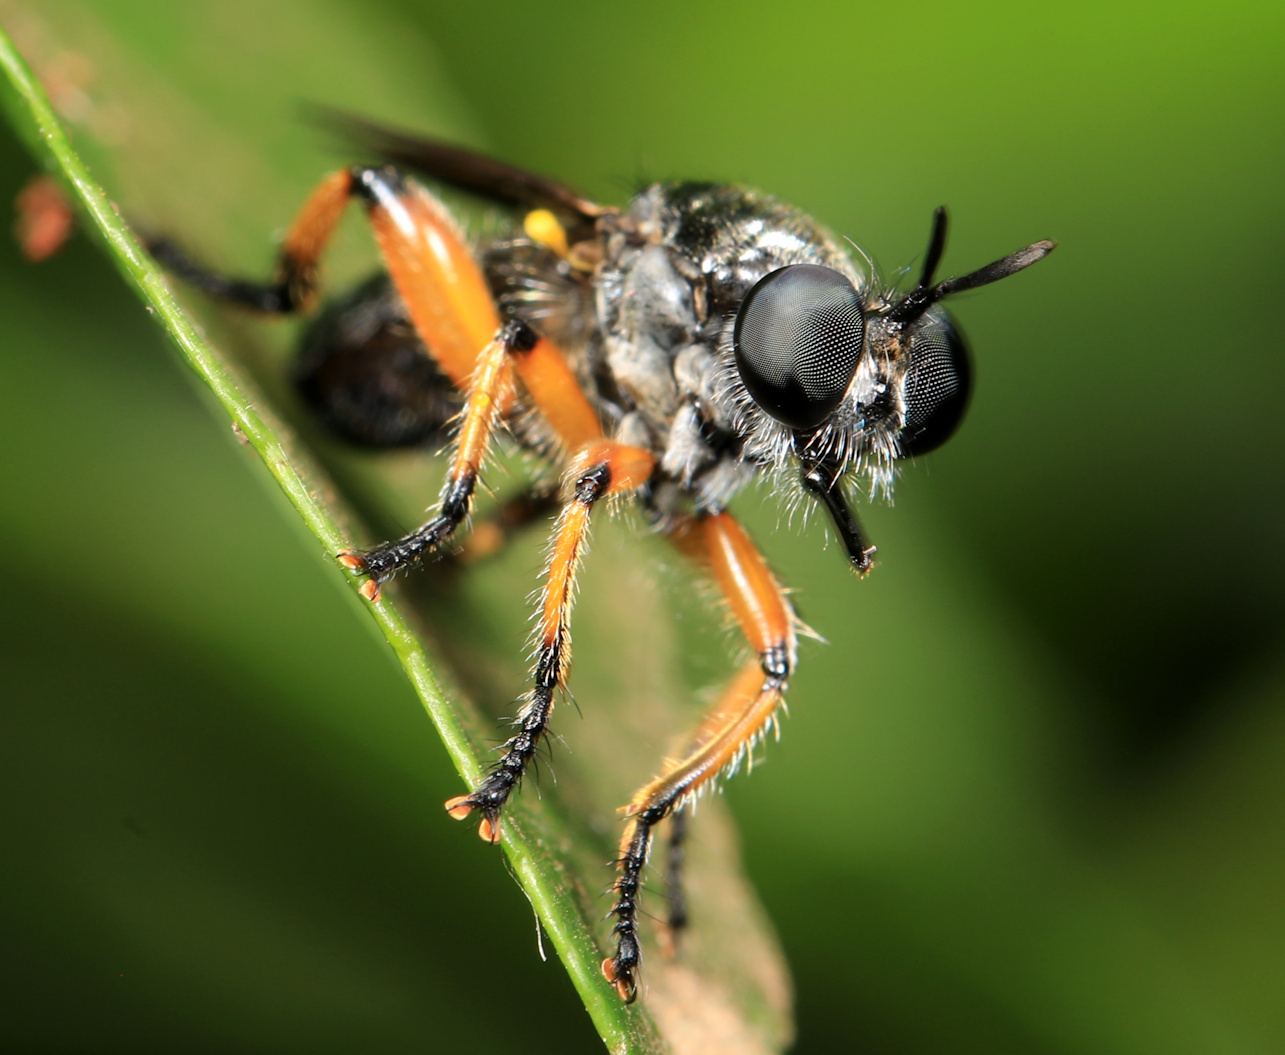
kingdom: Animalia
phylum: Arthropoda
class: Insecta
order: Diptera
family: Asilidae
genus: Laphria
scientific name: Laphria flavipes
